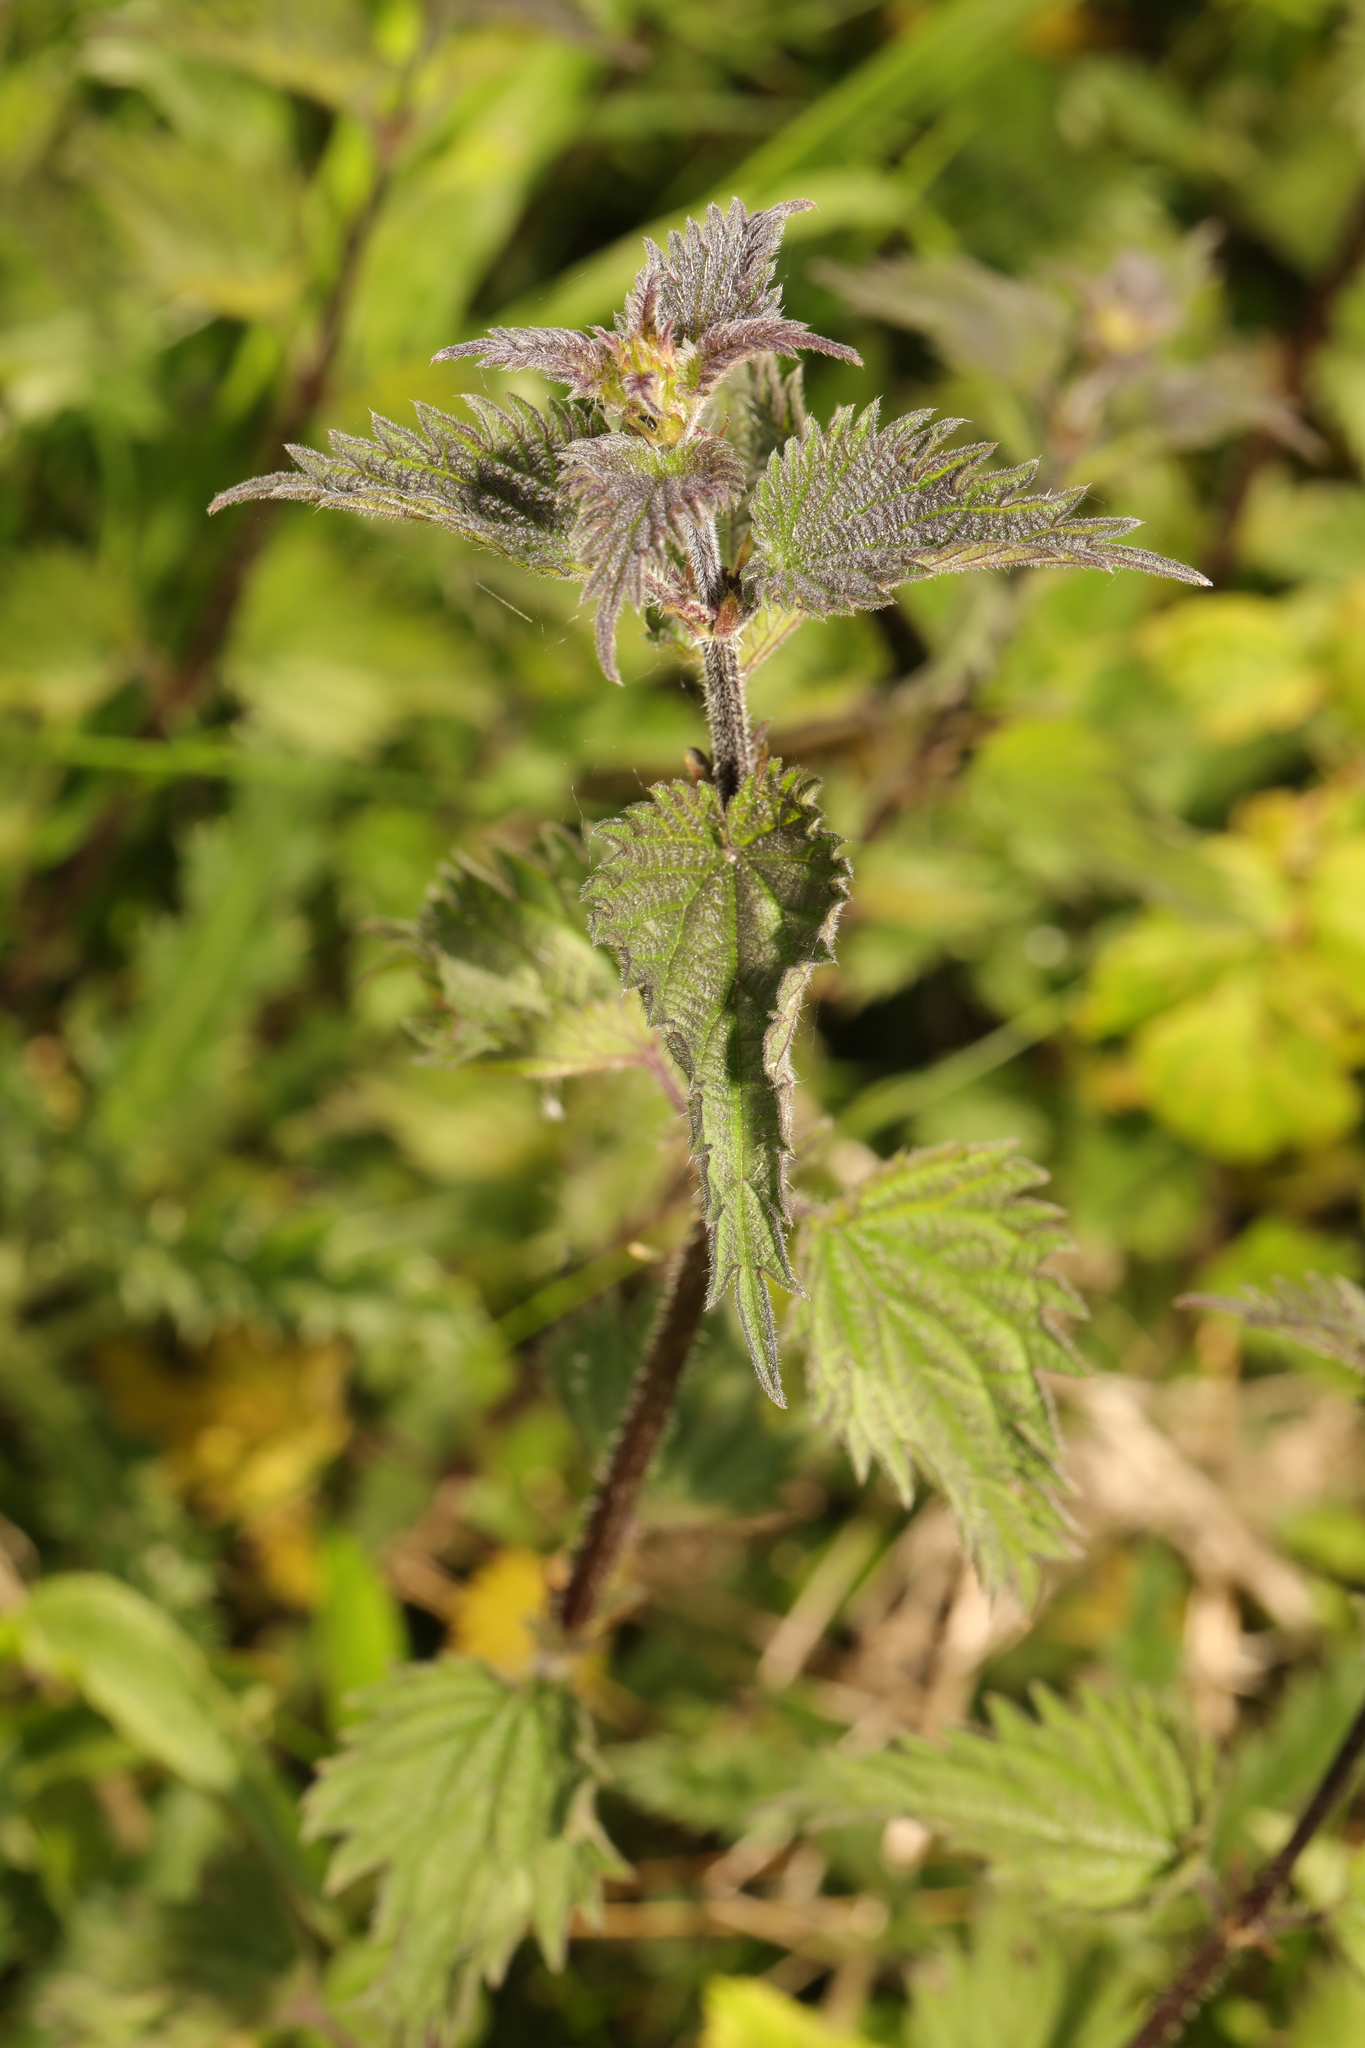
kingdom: Plantae
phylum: Tracheophyta
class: Magnoliopsida
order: Rosales
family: Urticaceae
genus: Urtica
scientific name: Urtica dioica
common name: Common nettle
